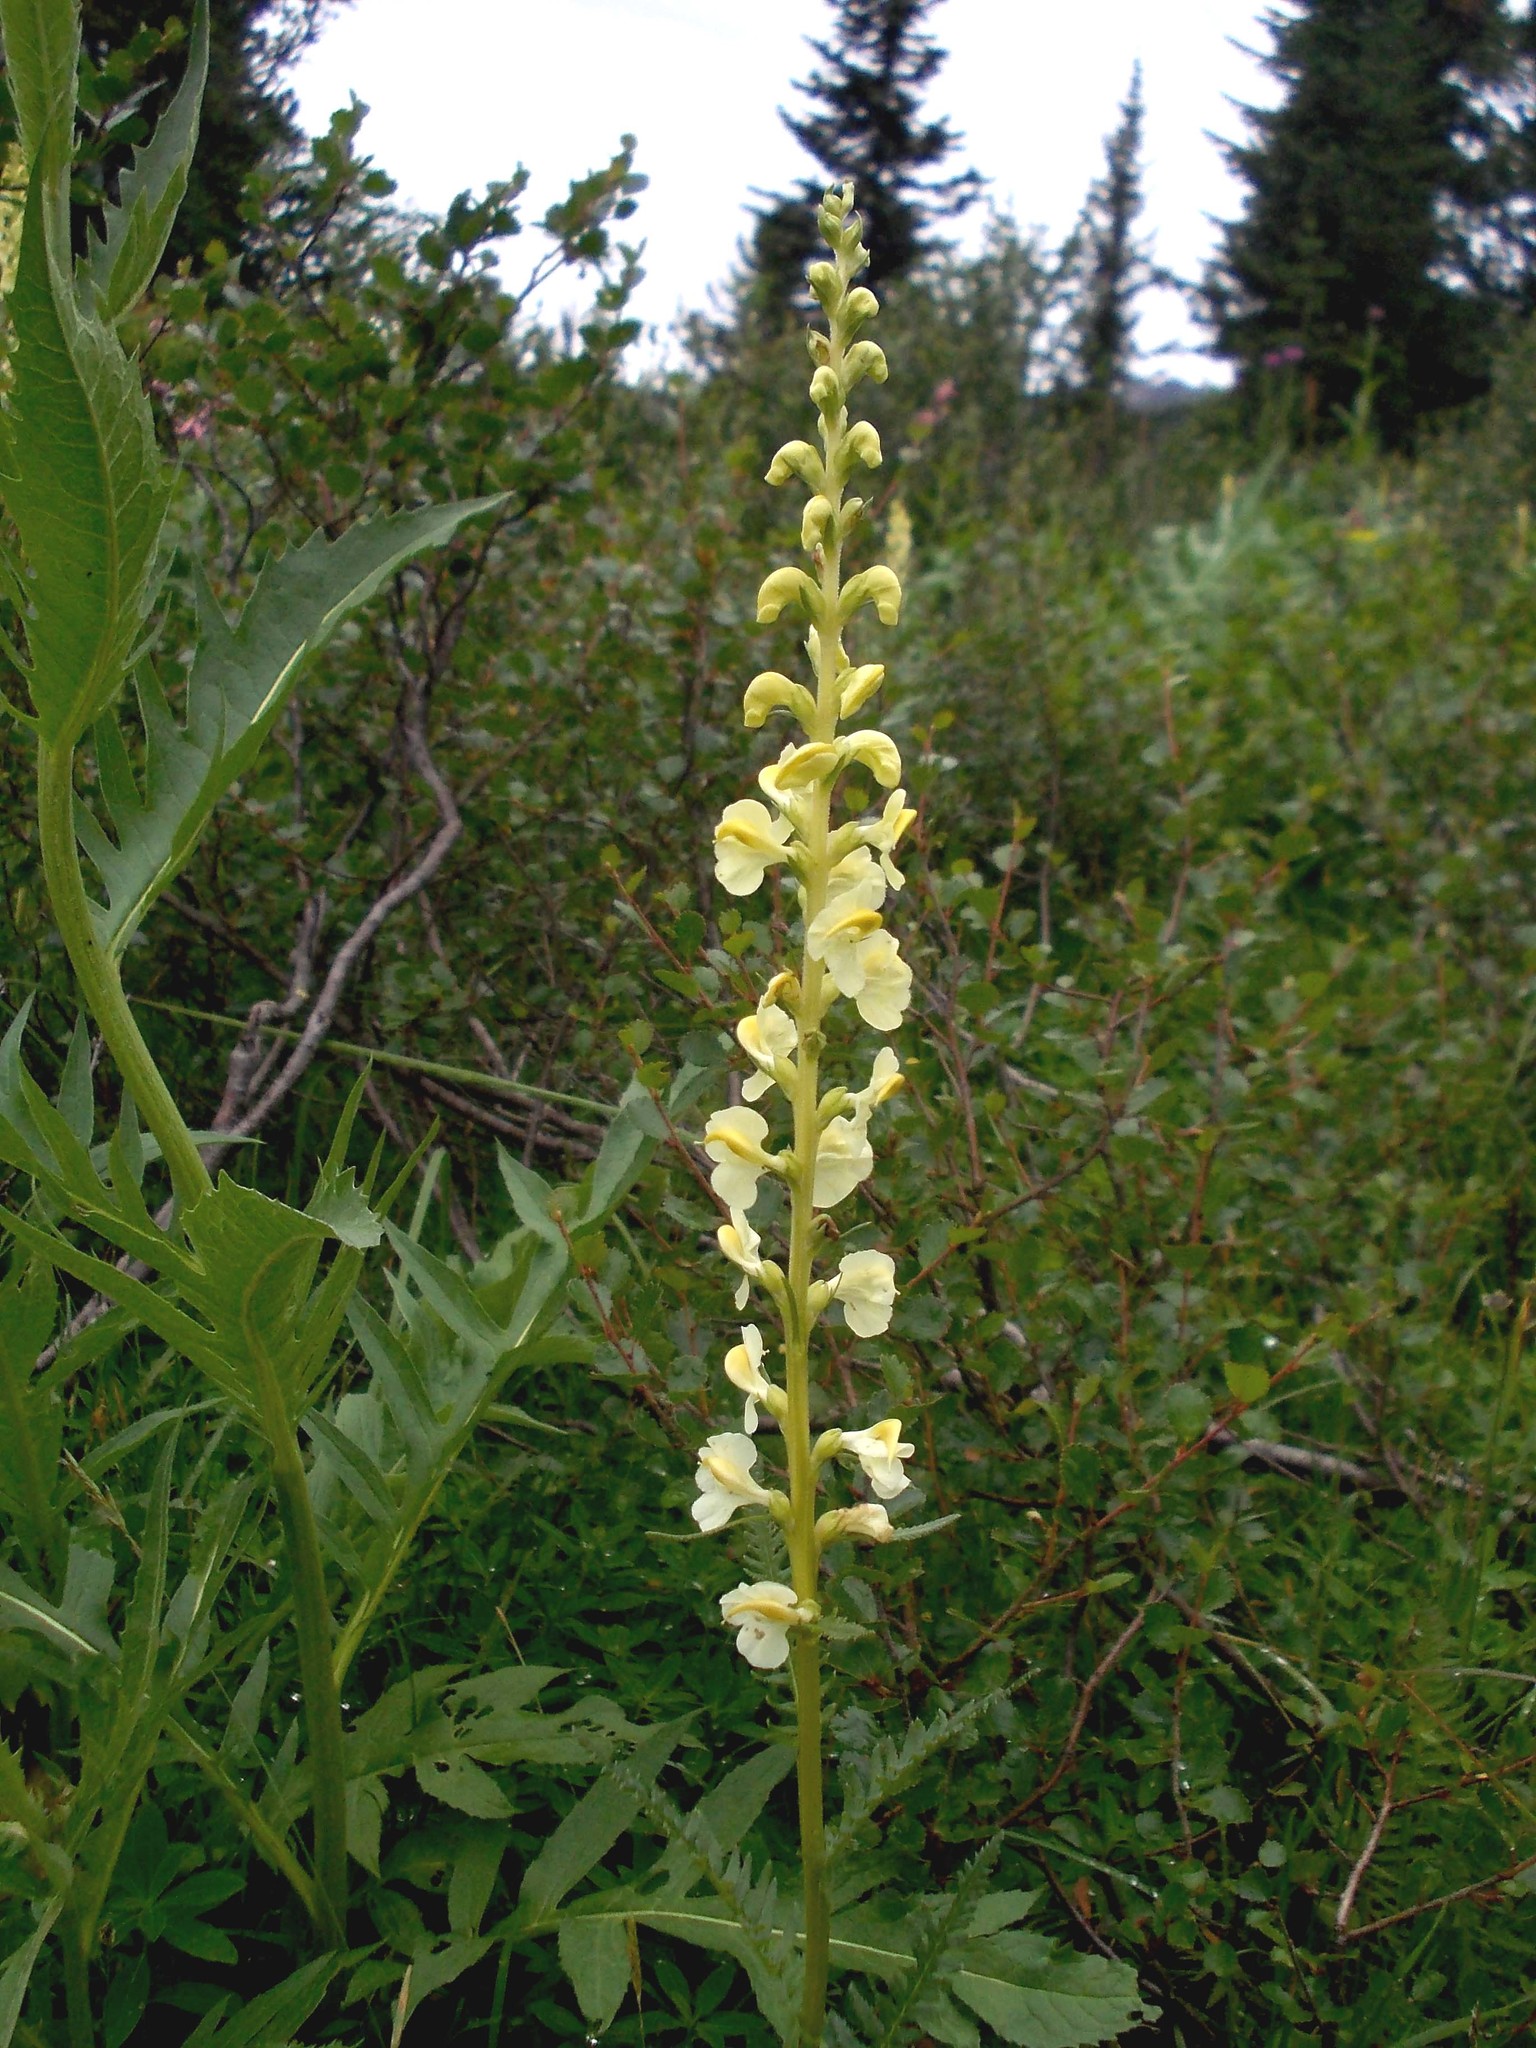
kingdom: Plantae
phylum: Tracheophyta
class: Magnoliopsida
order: Lamiales
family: Orobanchaceae
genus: Pedicularis
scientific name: Pedicularis incarnata
